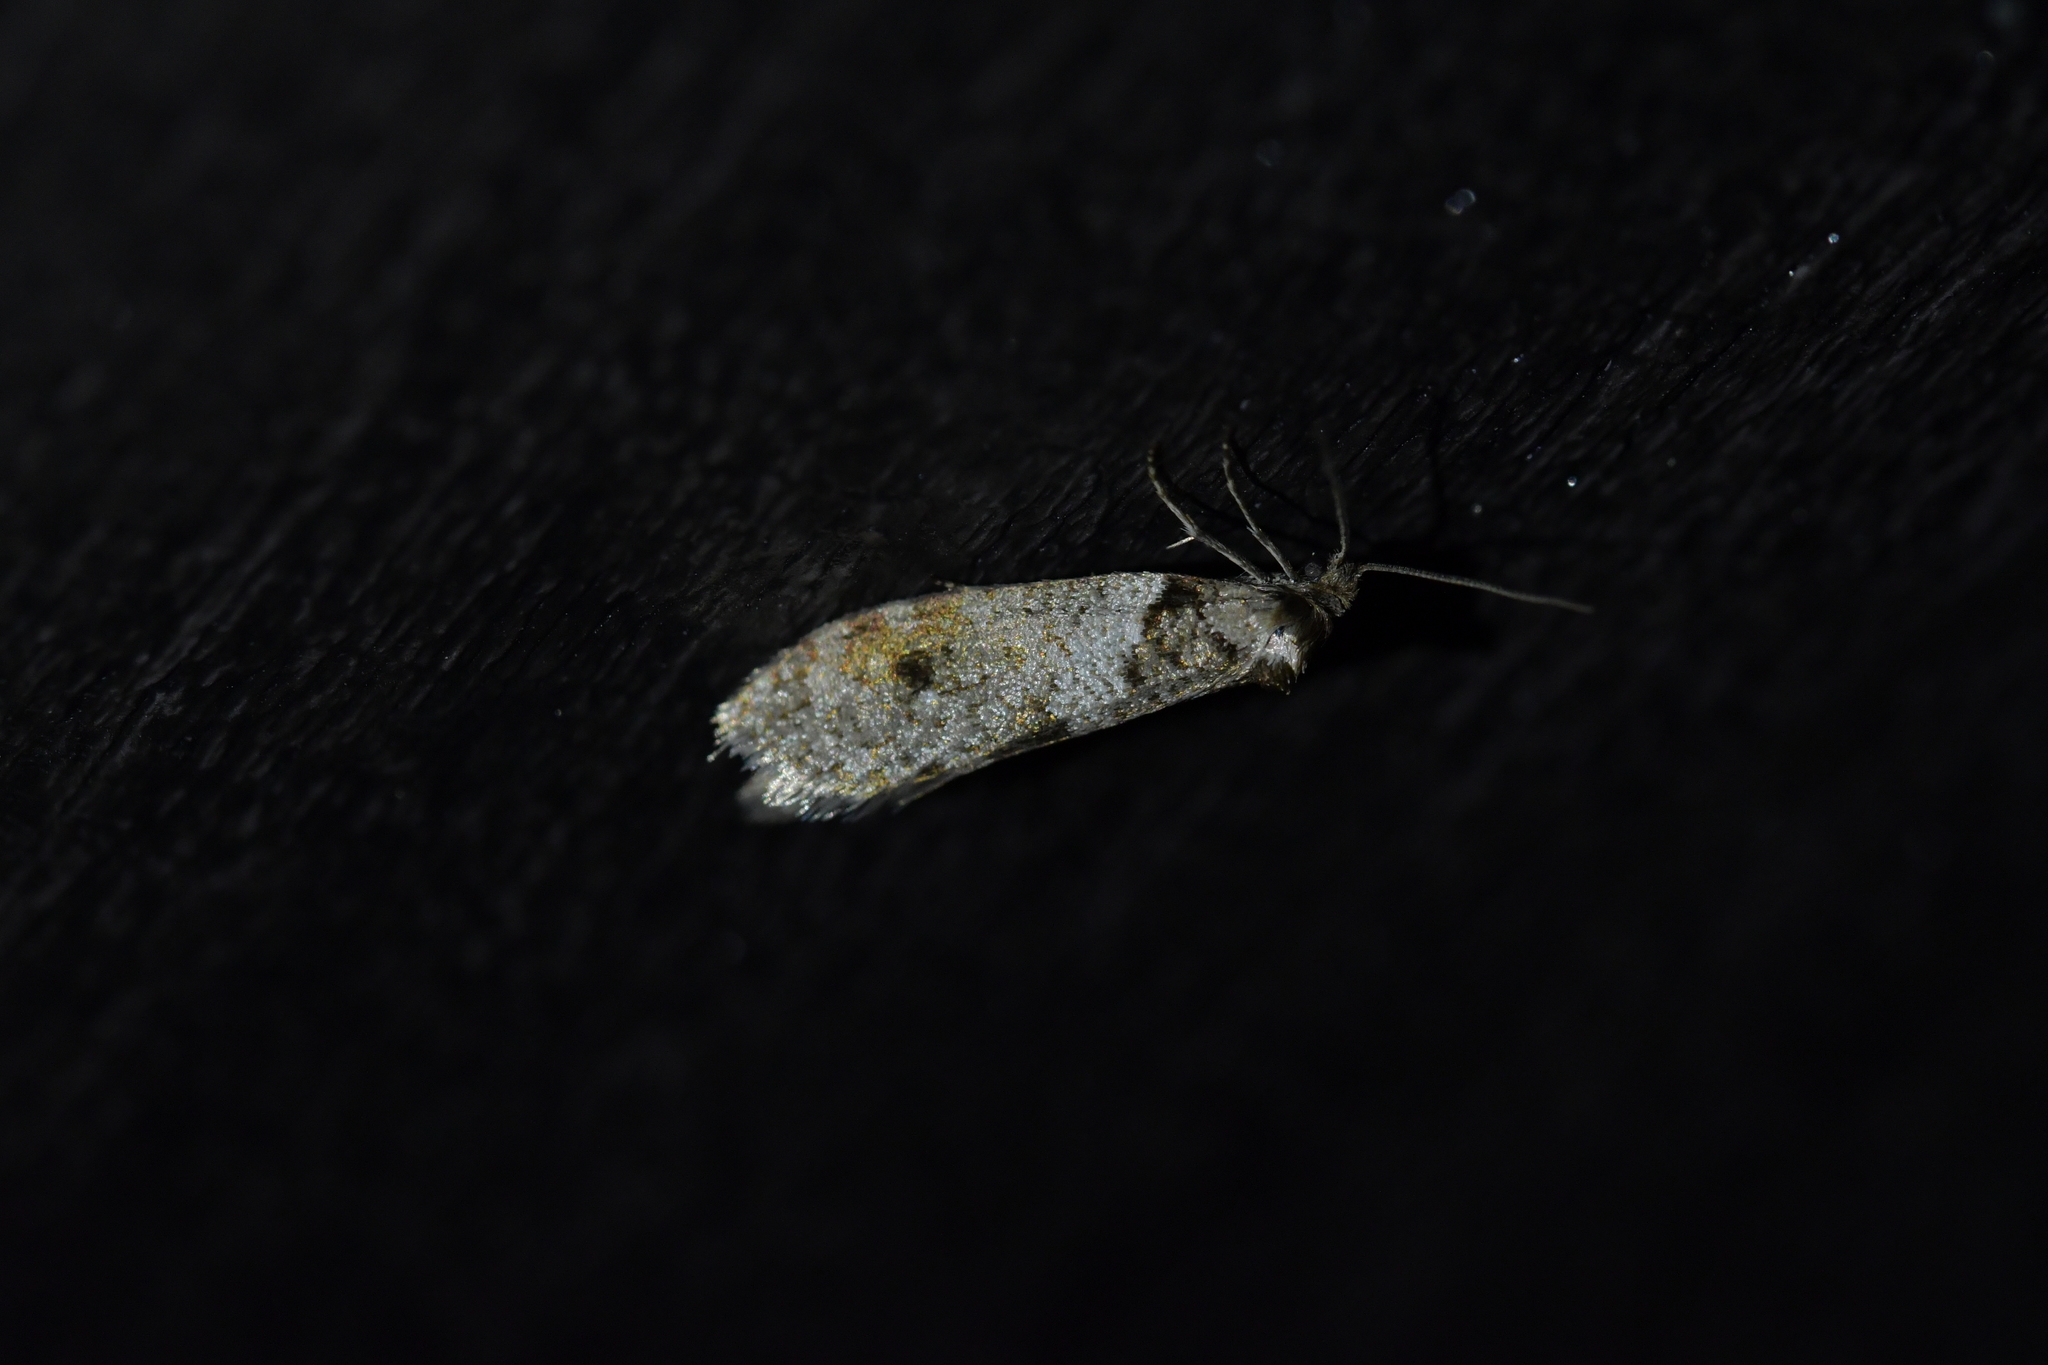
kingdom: Animalia
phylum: Arthropoda
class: Insecta
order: Lepidoptera
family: Psychidae
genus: Lepidoscia
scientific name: Lepidoscia heliochares
